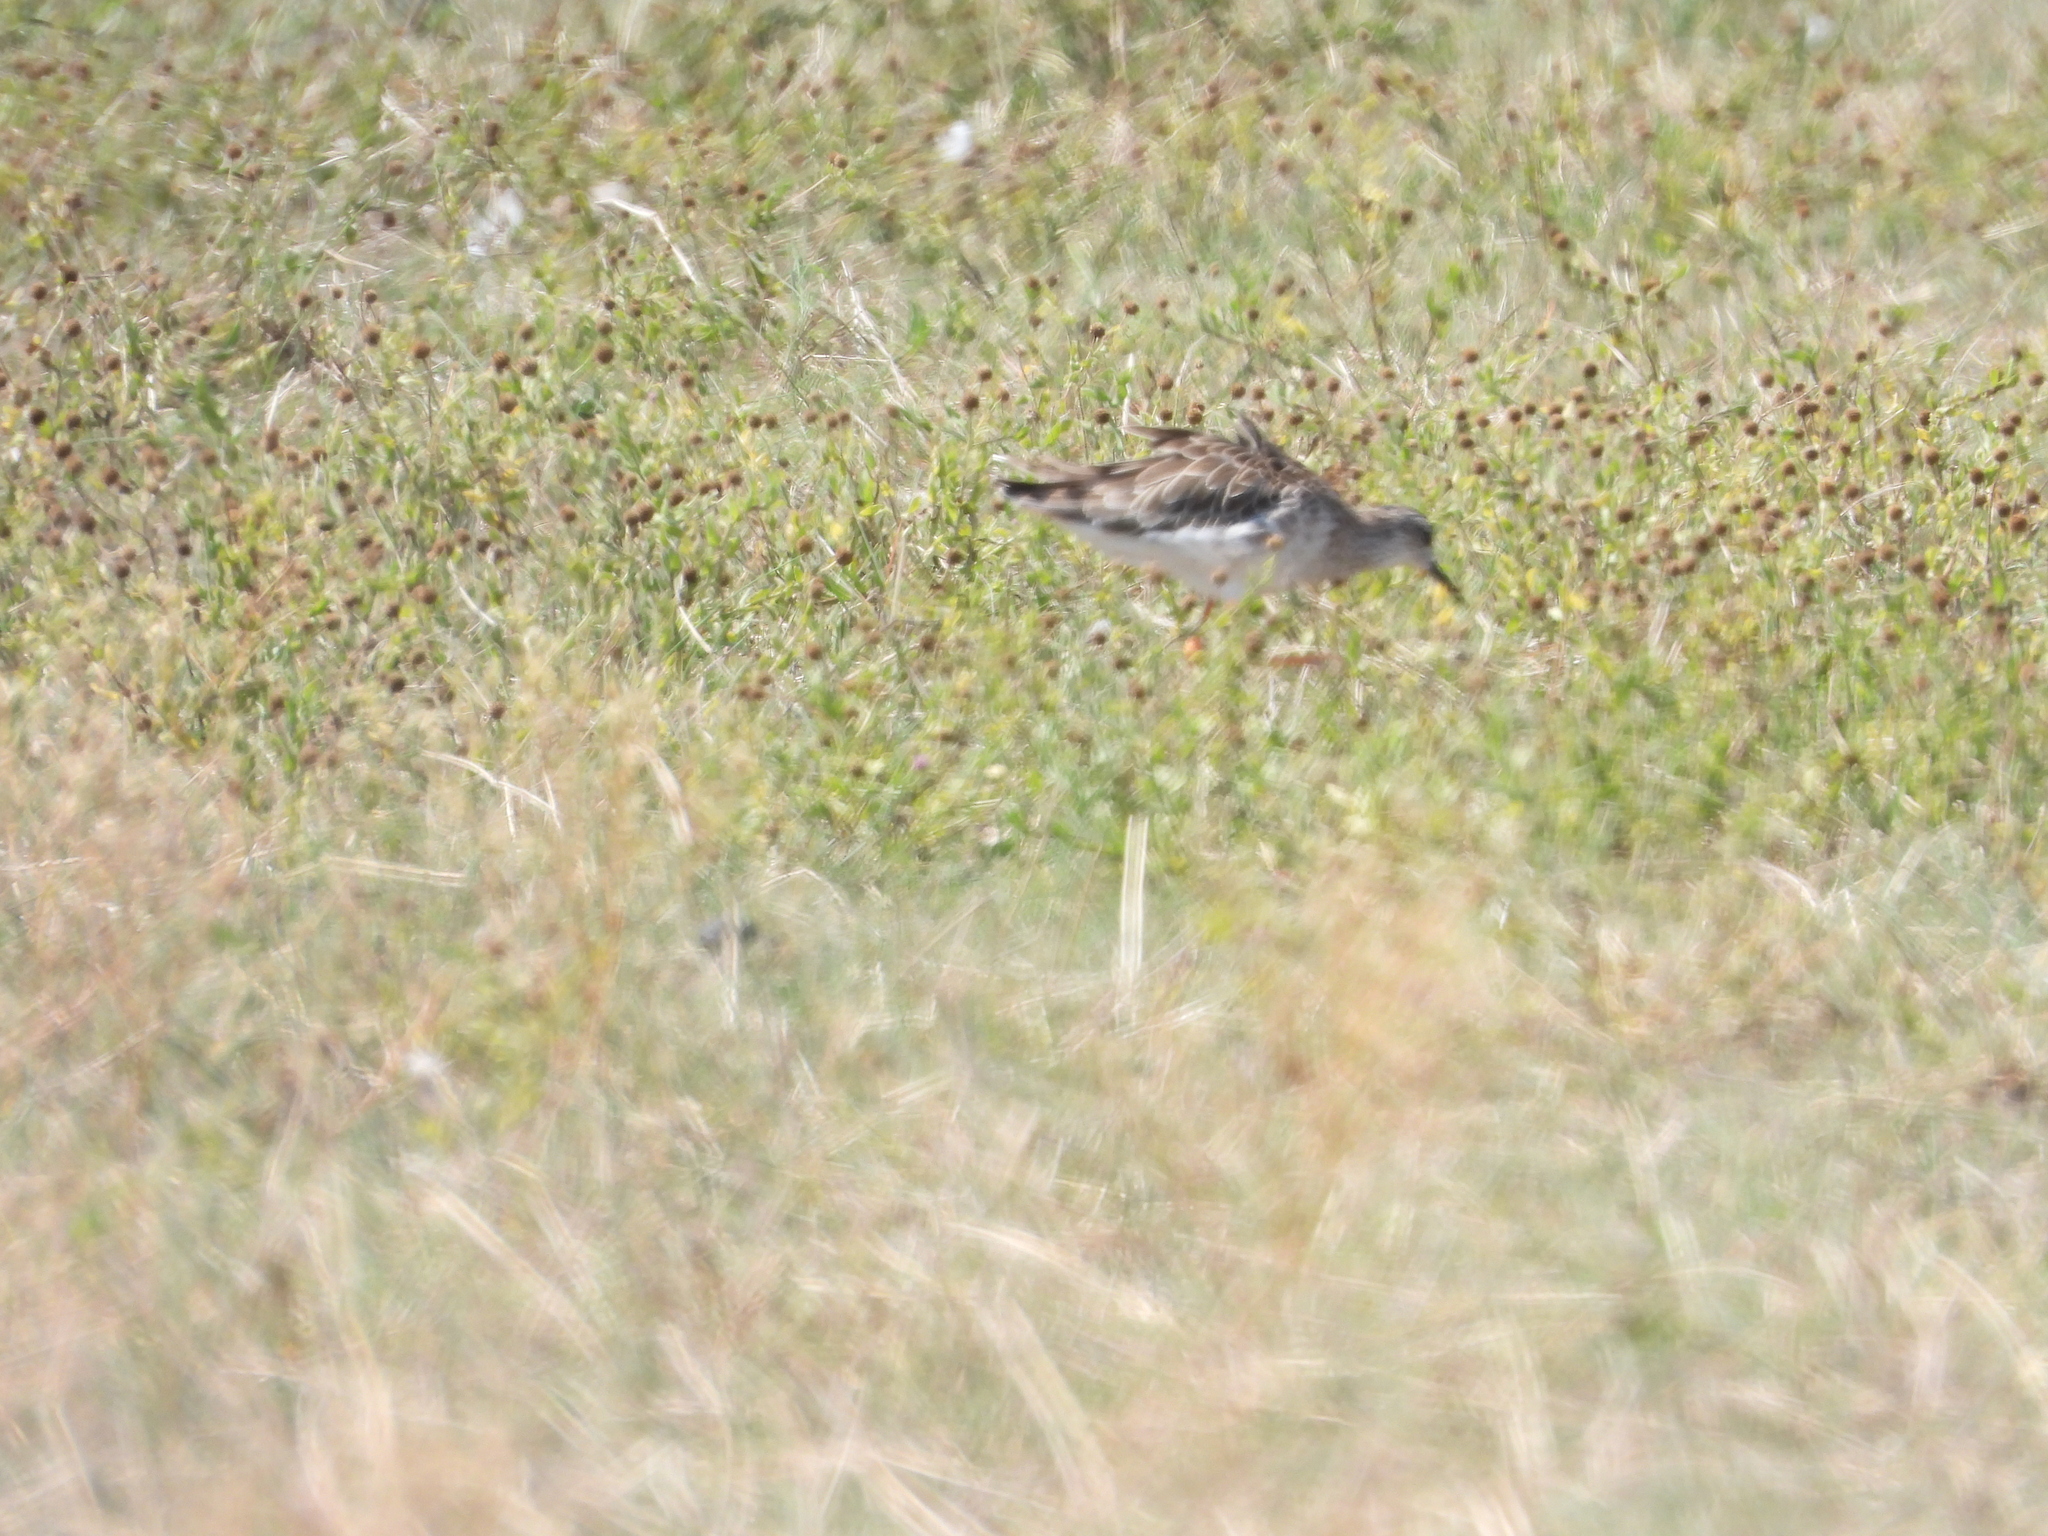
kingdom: Animalia
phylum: Chordata
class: Aves
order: Charadriiformes
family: Scolopacidae
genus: Calidris
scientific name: Calidris pugnax
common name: Ruff
